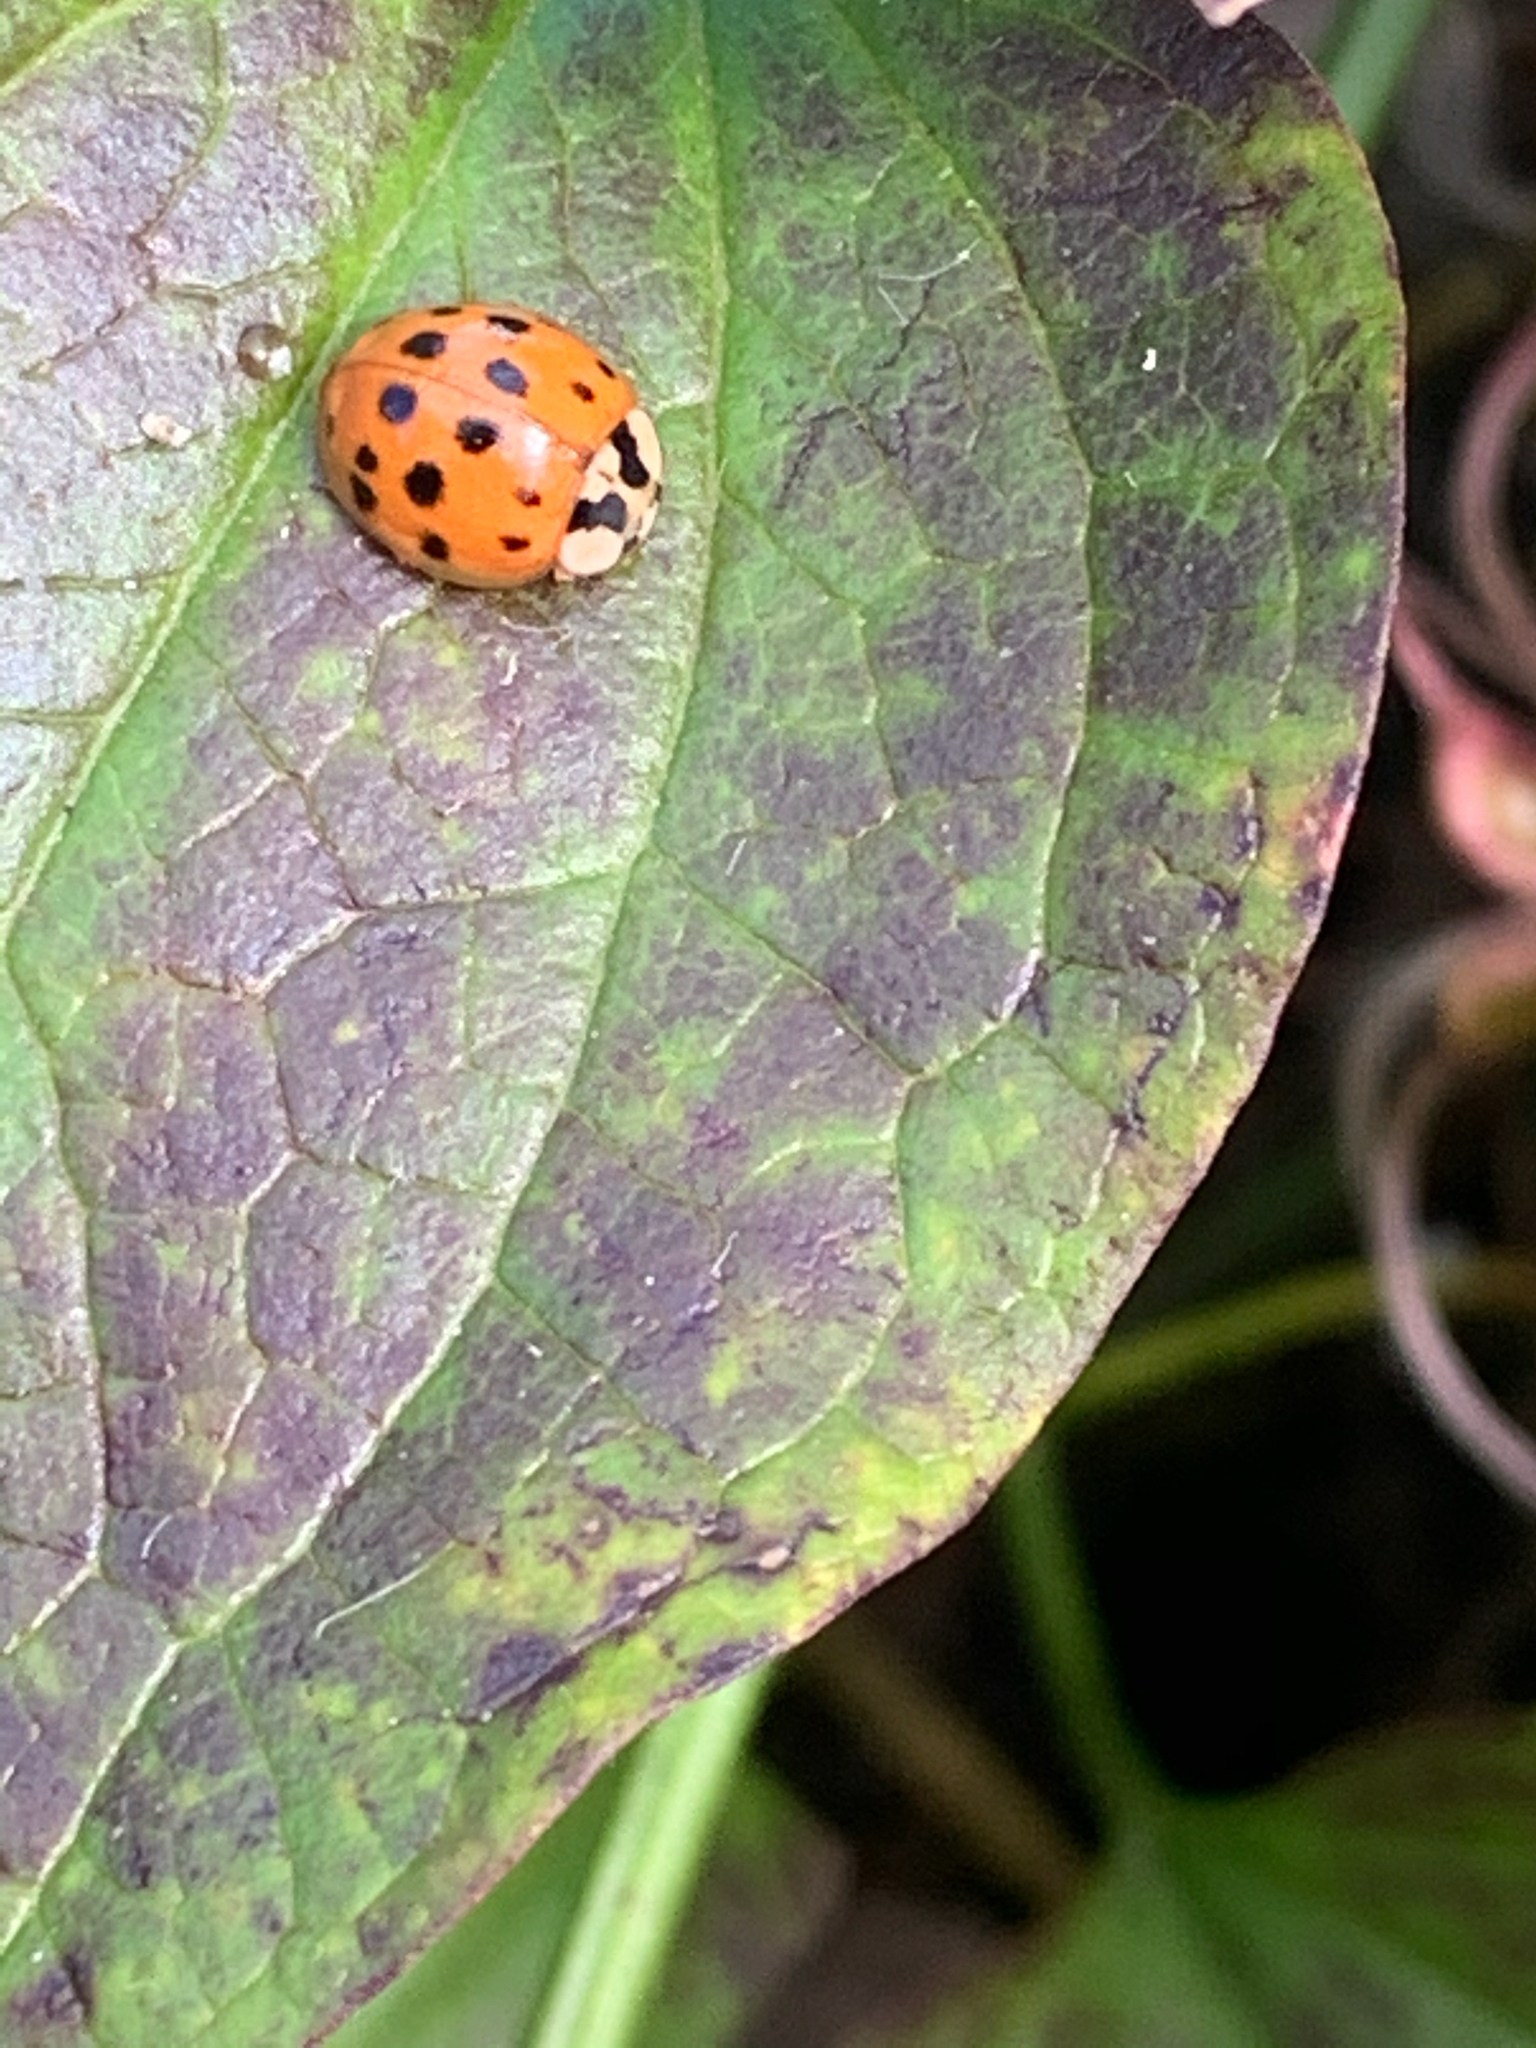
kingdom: Animalia
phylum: Arthropoda
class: Insecta
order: Coleoptera
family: Coccinellidae
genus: Harmonia
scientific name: Harmonia axyridis
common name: Harlequin ladybird
